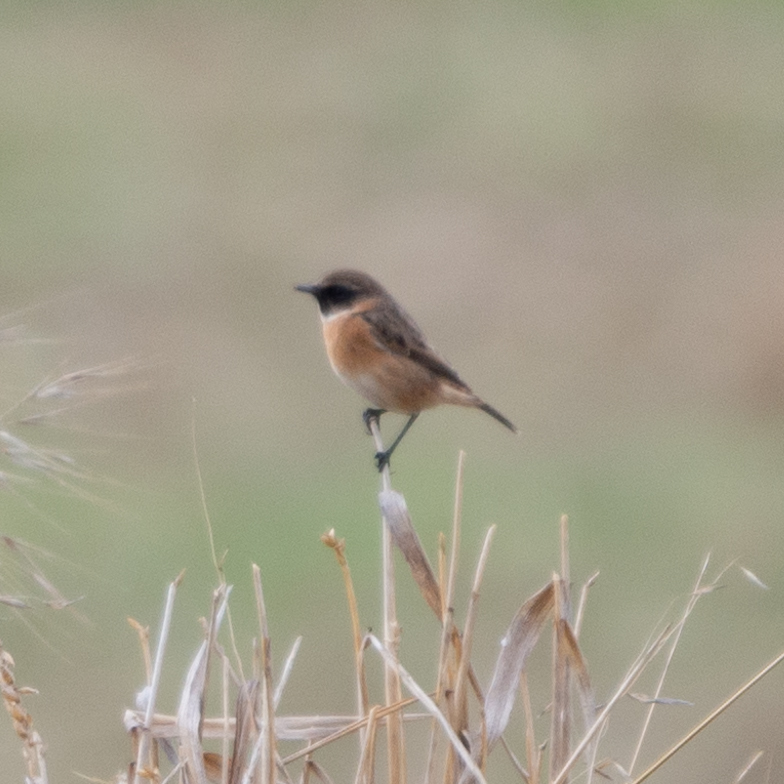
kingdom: Animalia
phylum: Chordata
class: Aves
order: Passeriformes
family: Muscicapidae
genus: Saxicola
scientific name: Saxicola rubicola
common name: European stonechat
